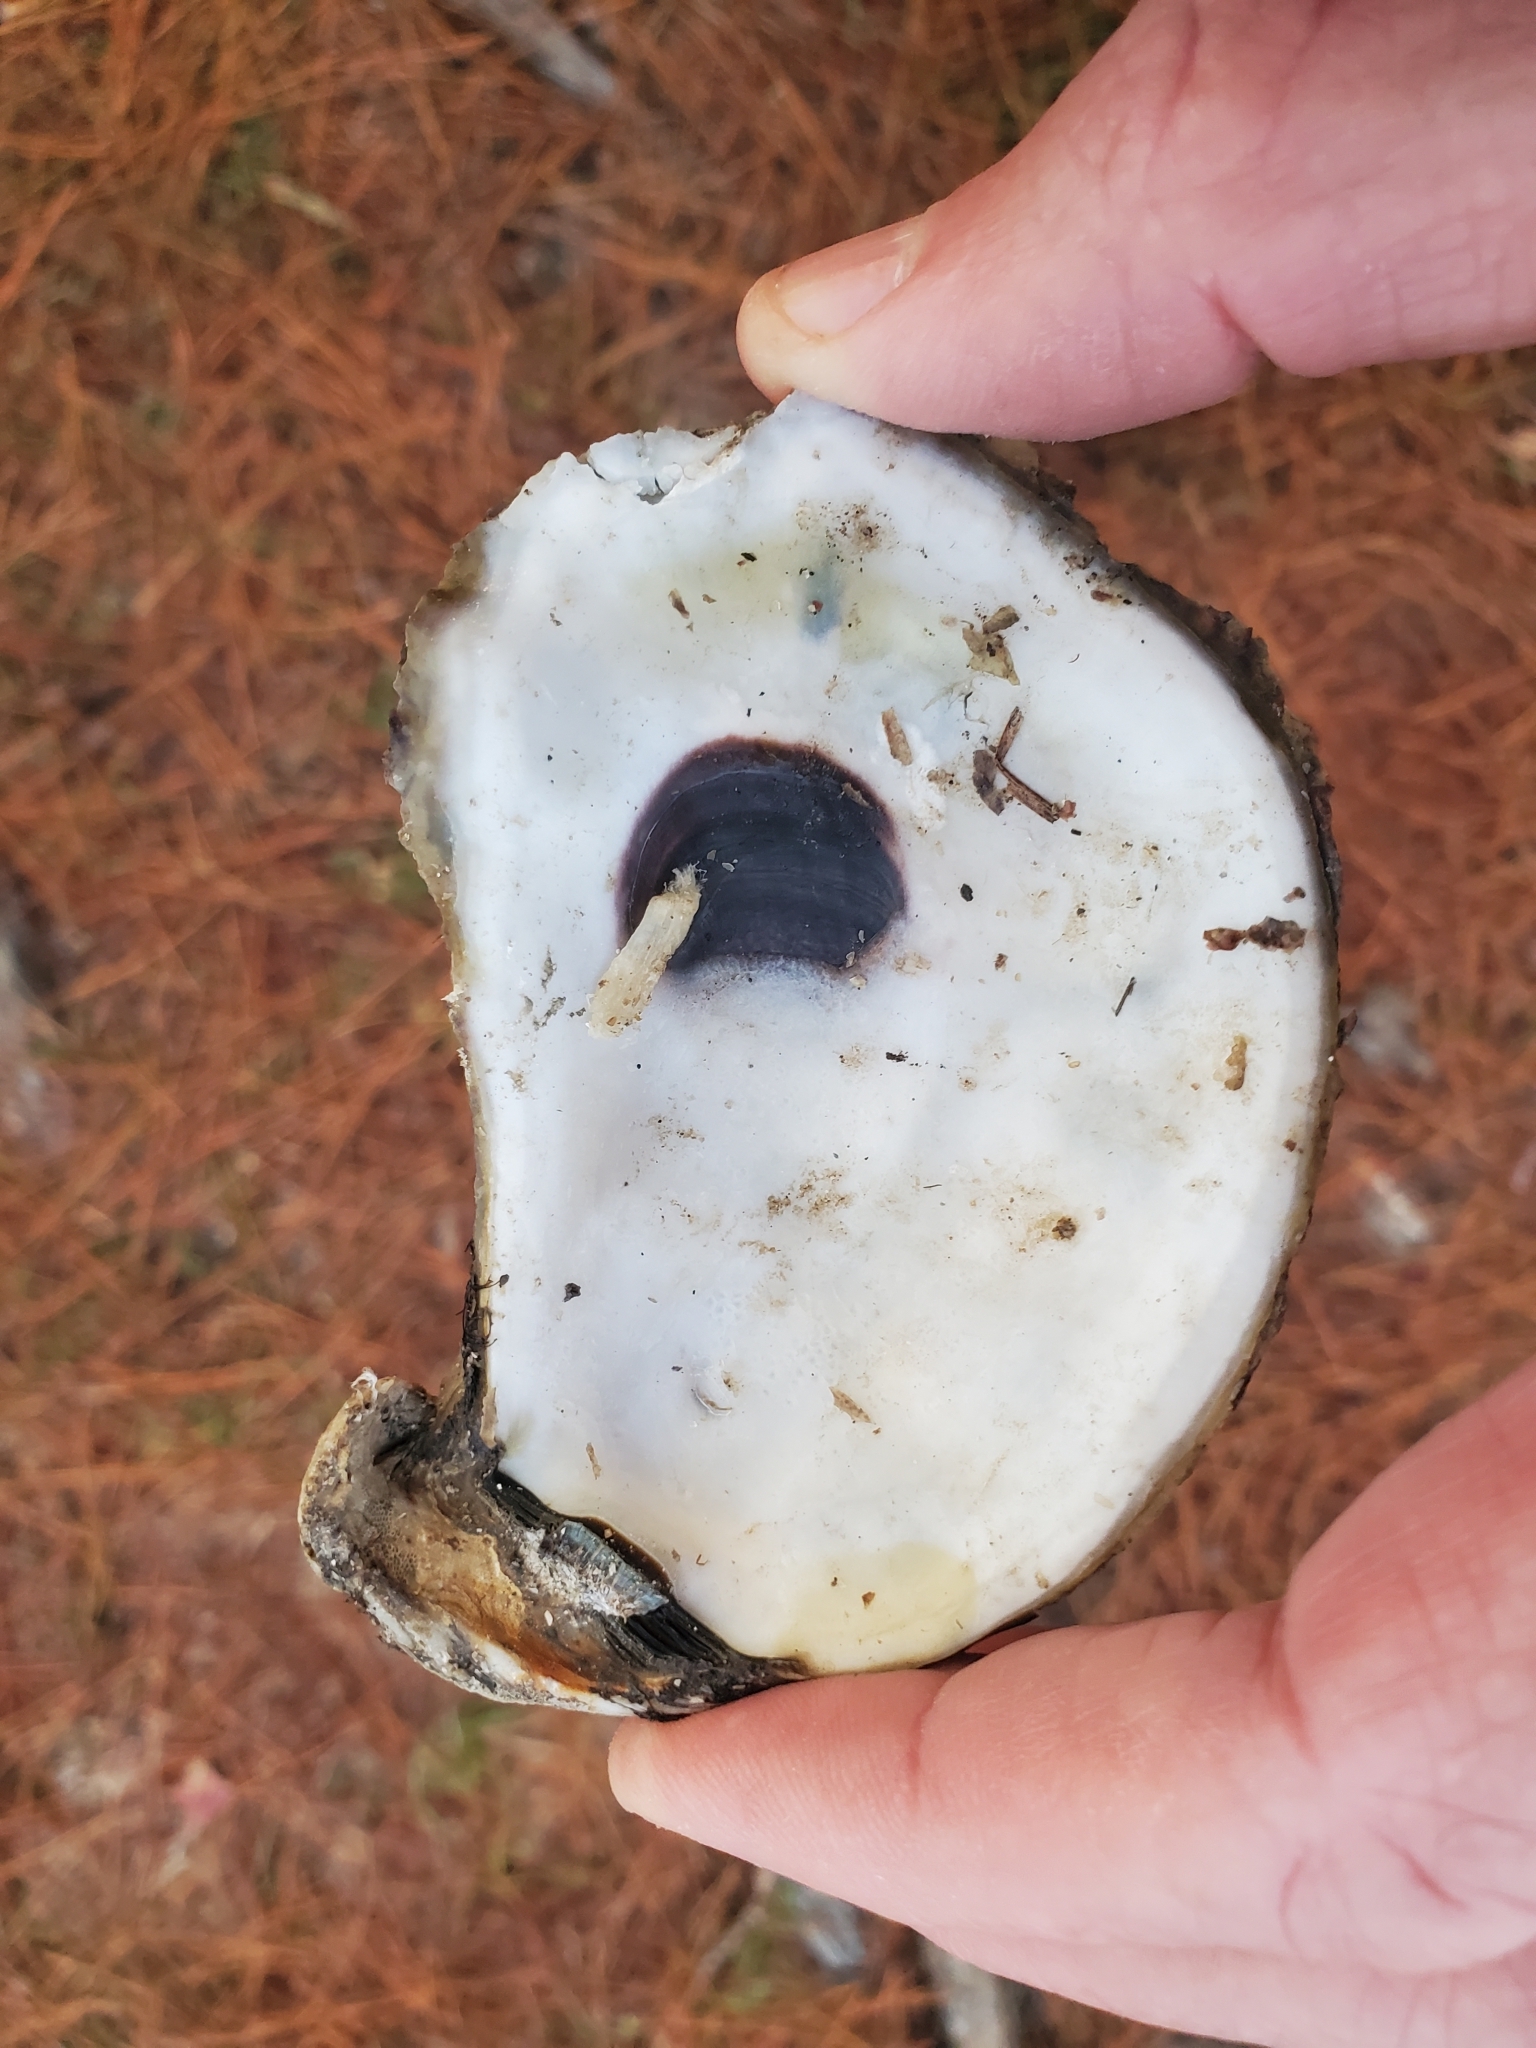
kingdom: Animalia
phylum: Mollusca
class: Bivalvia
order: Ostreida
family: Ostreidae
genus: Crassostrea
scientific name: Crassostrea virginica
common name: American oyster
